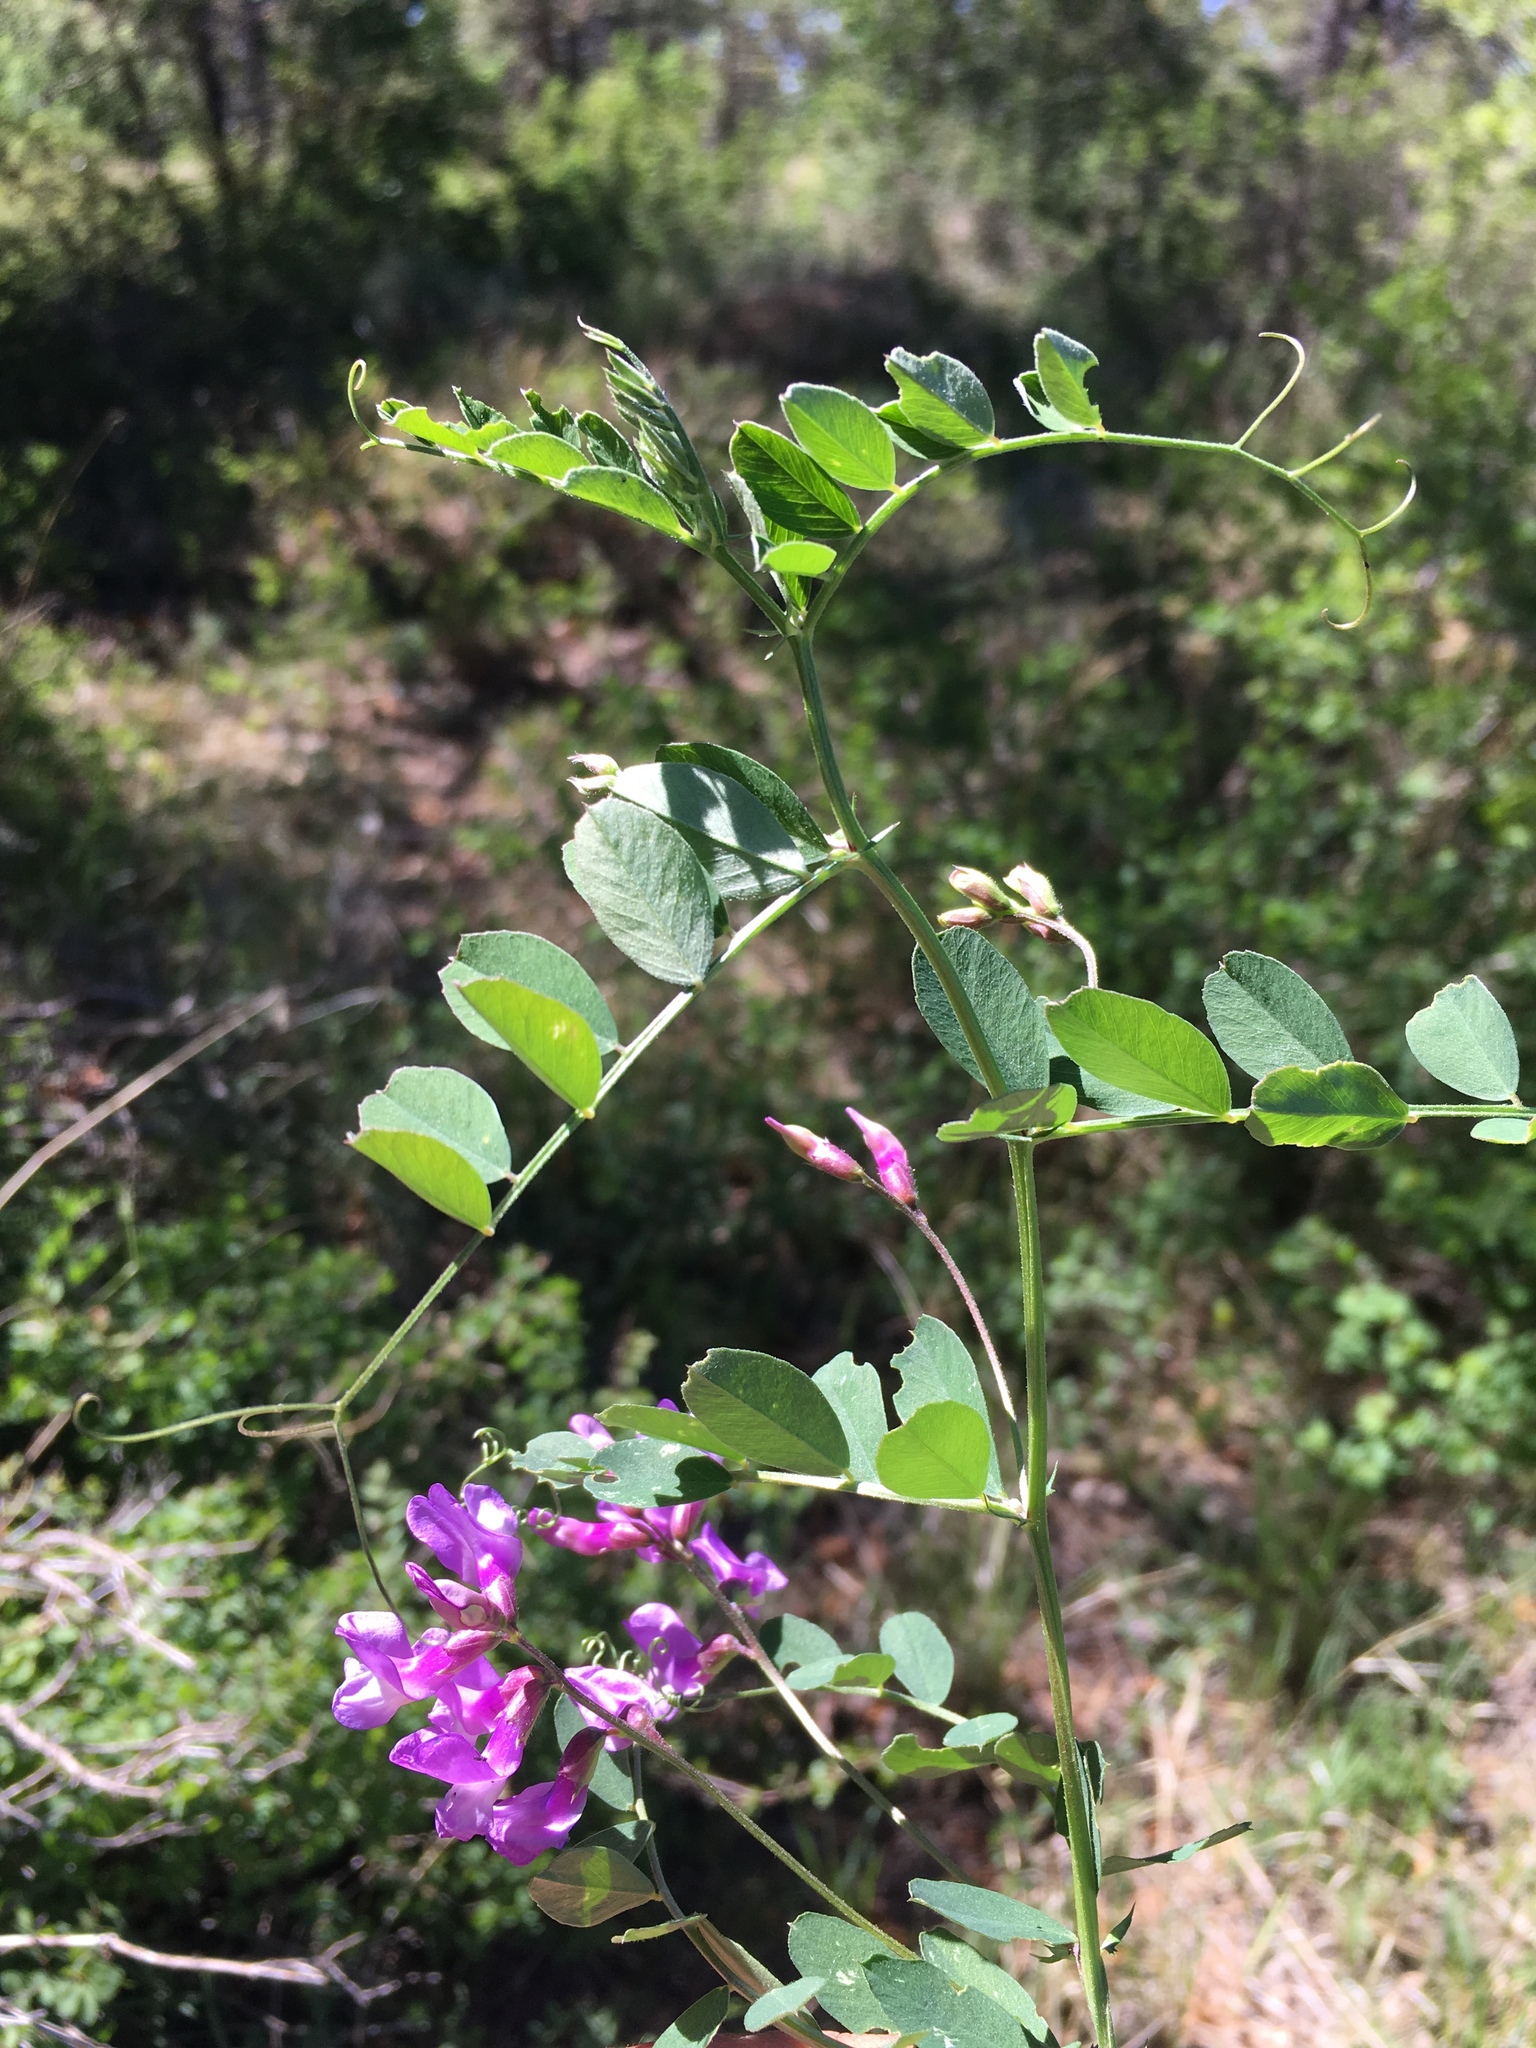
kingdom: Plantae
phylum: Tracheophyta
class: Magnoliopsida
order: Fabales
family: Fabaceae
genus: Vicia
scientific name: Vicia americana
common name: American vetch
